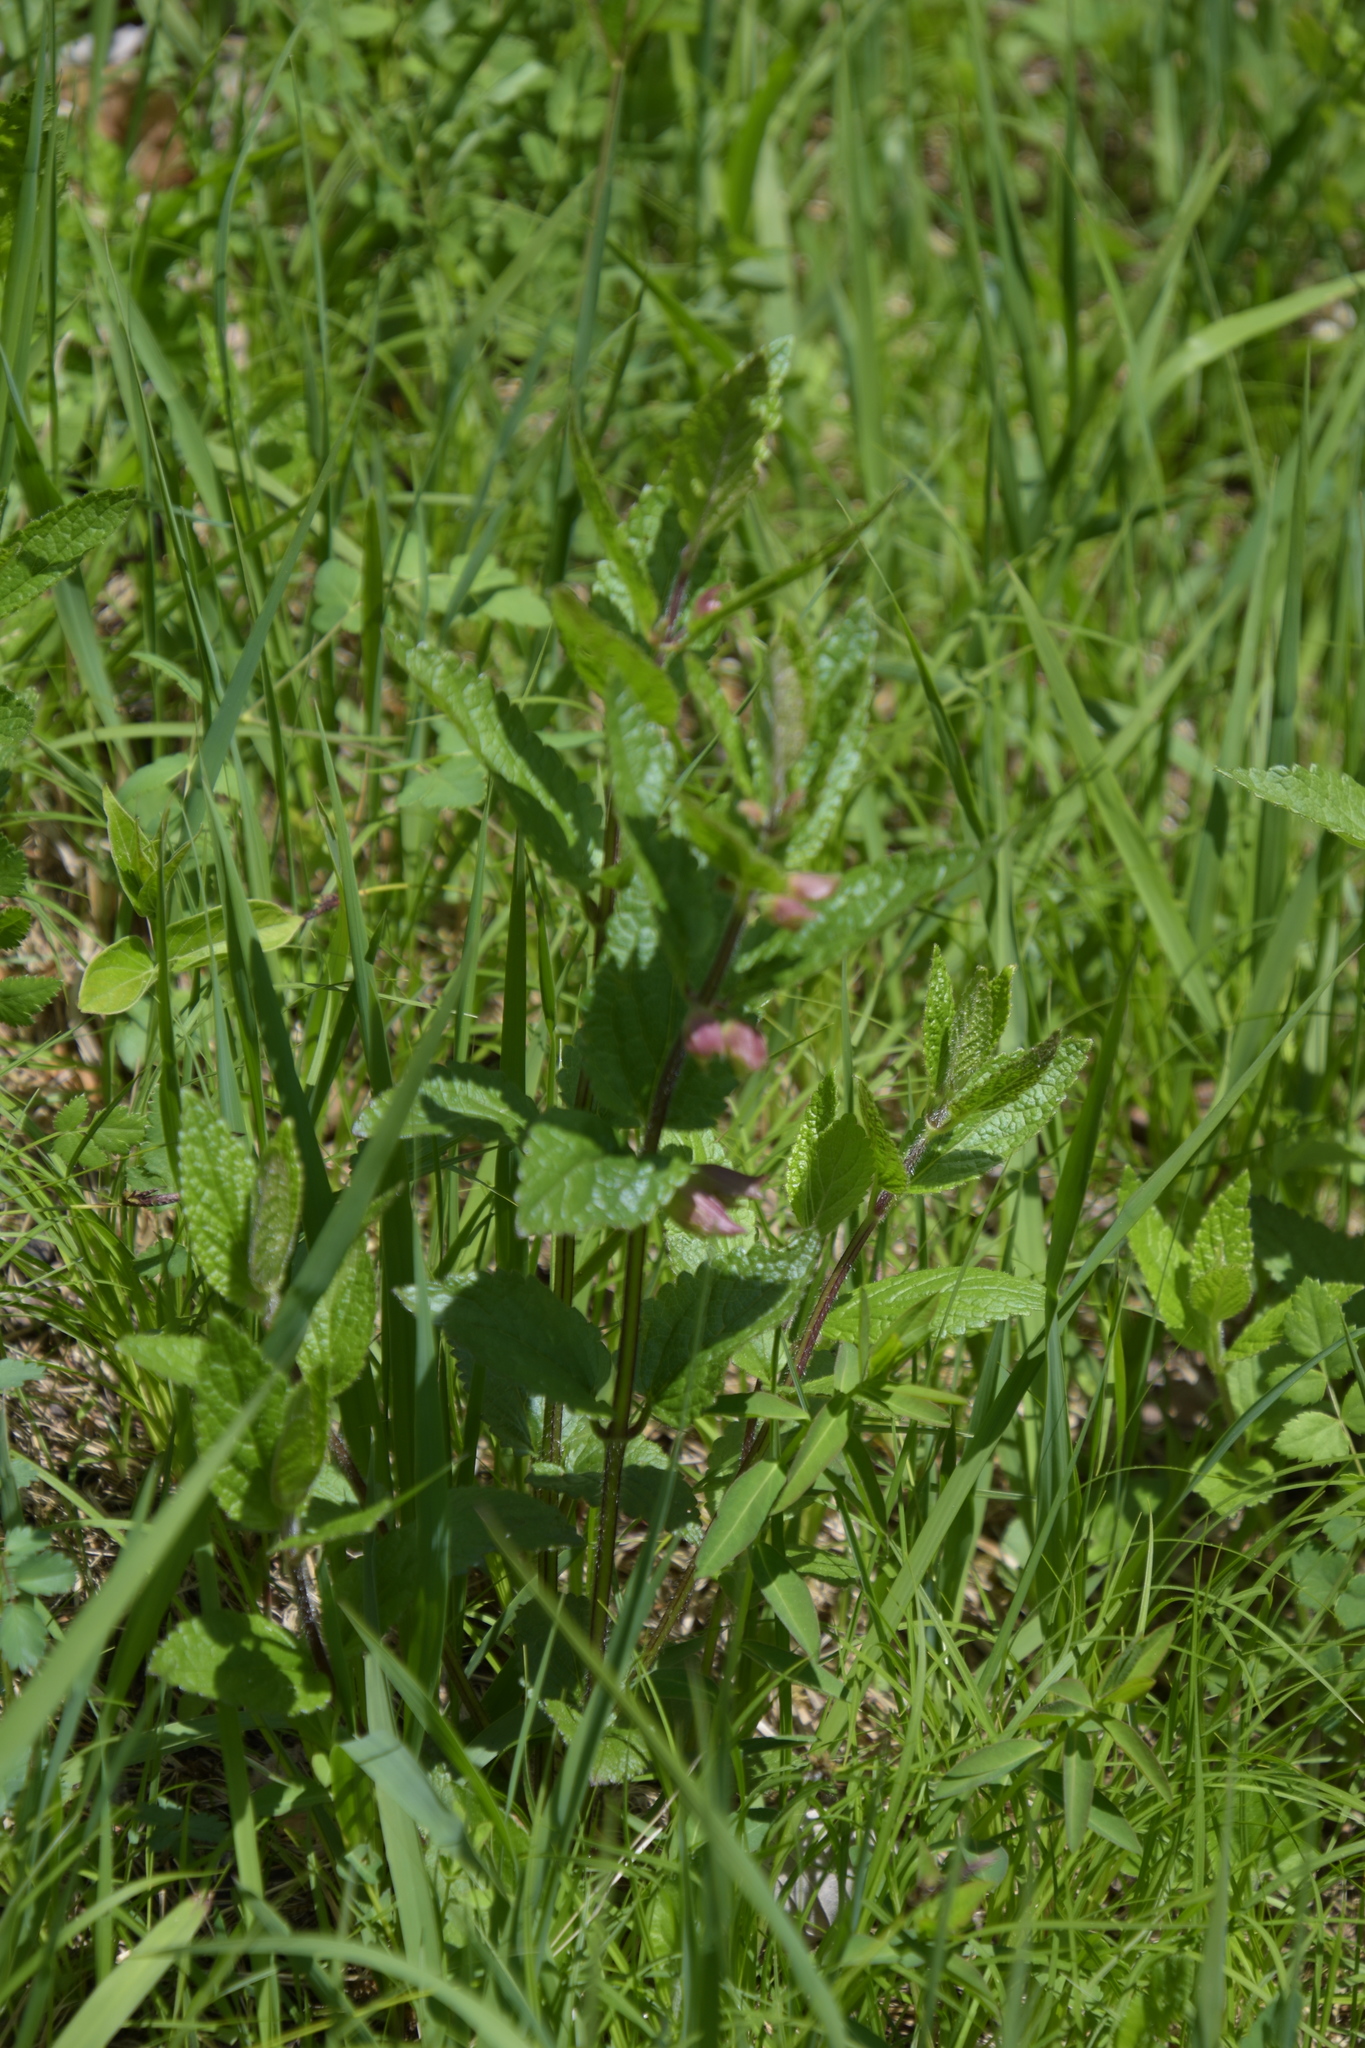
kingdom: Plantae
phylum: Tracheophyta
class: Magnoliopsida
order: Lamiales
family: Lamiaceae
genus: Melittis
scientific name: Melittis melissophyllum
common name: Bastard balm
